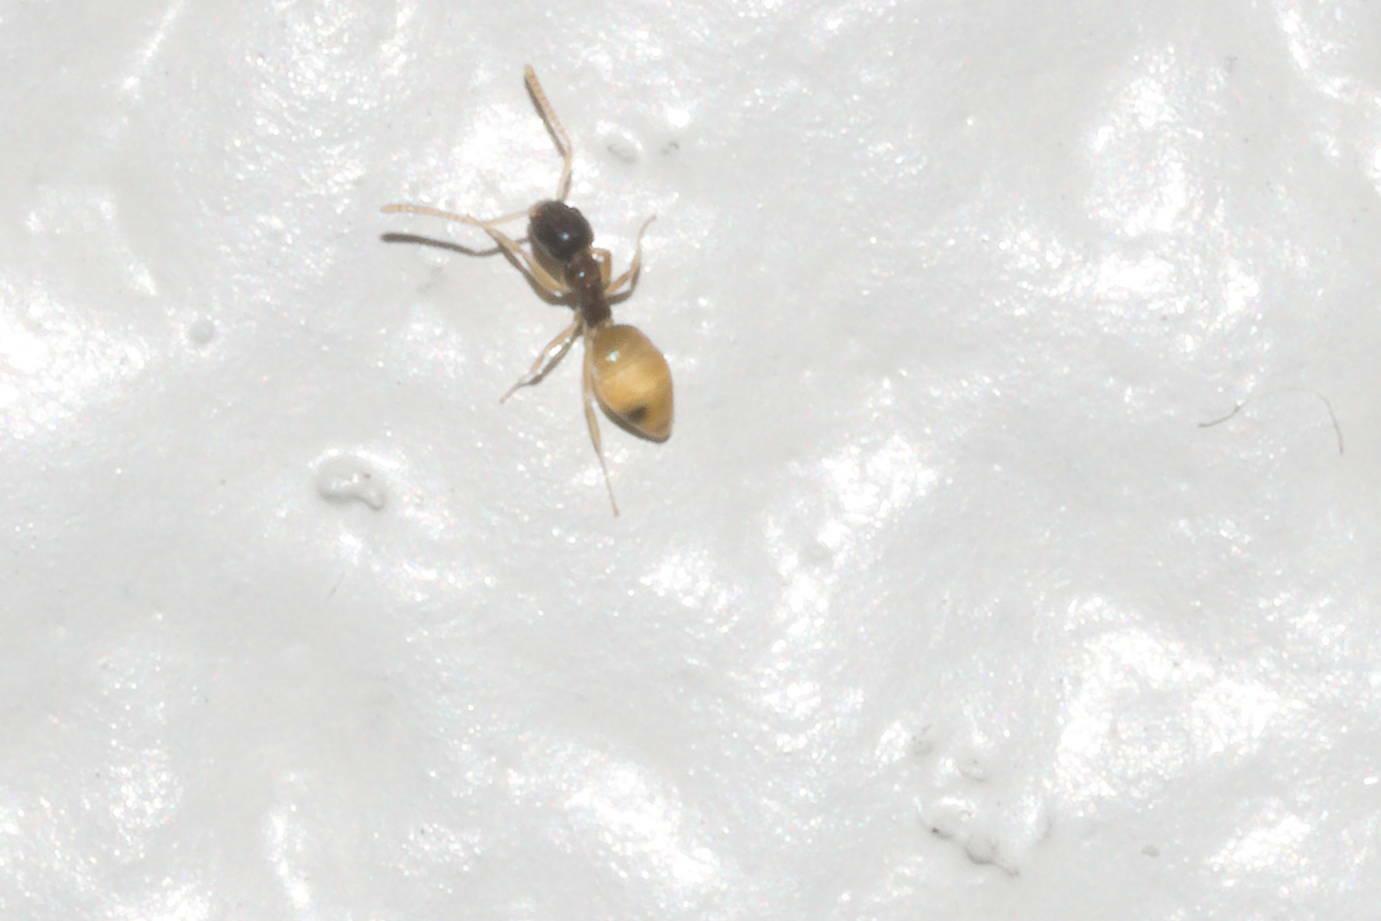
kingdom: Animalia
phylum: Arthropoda
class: Insecta
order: Hymenoptera
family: Formicidae
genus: Tapinoma
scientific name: Tapinoma melanocephalum
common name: Ghost ant
